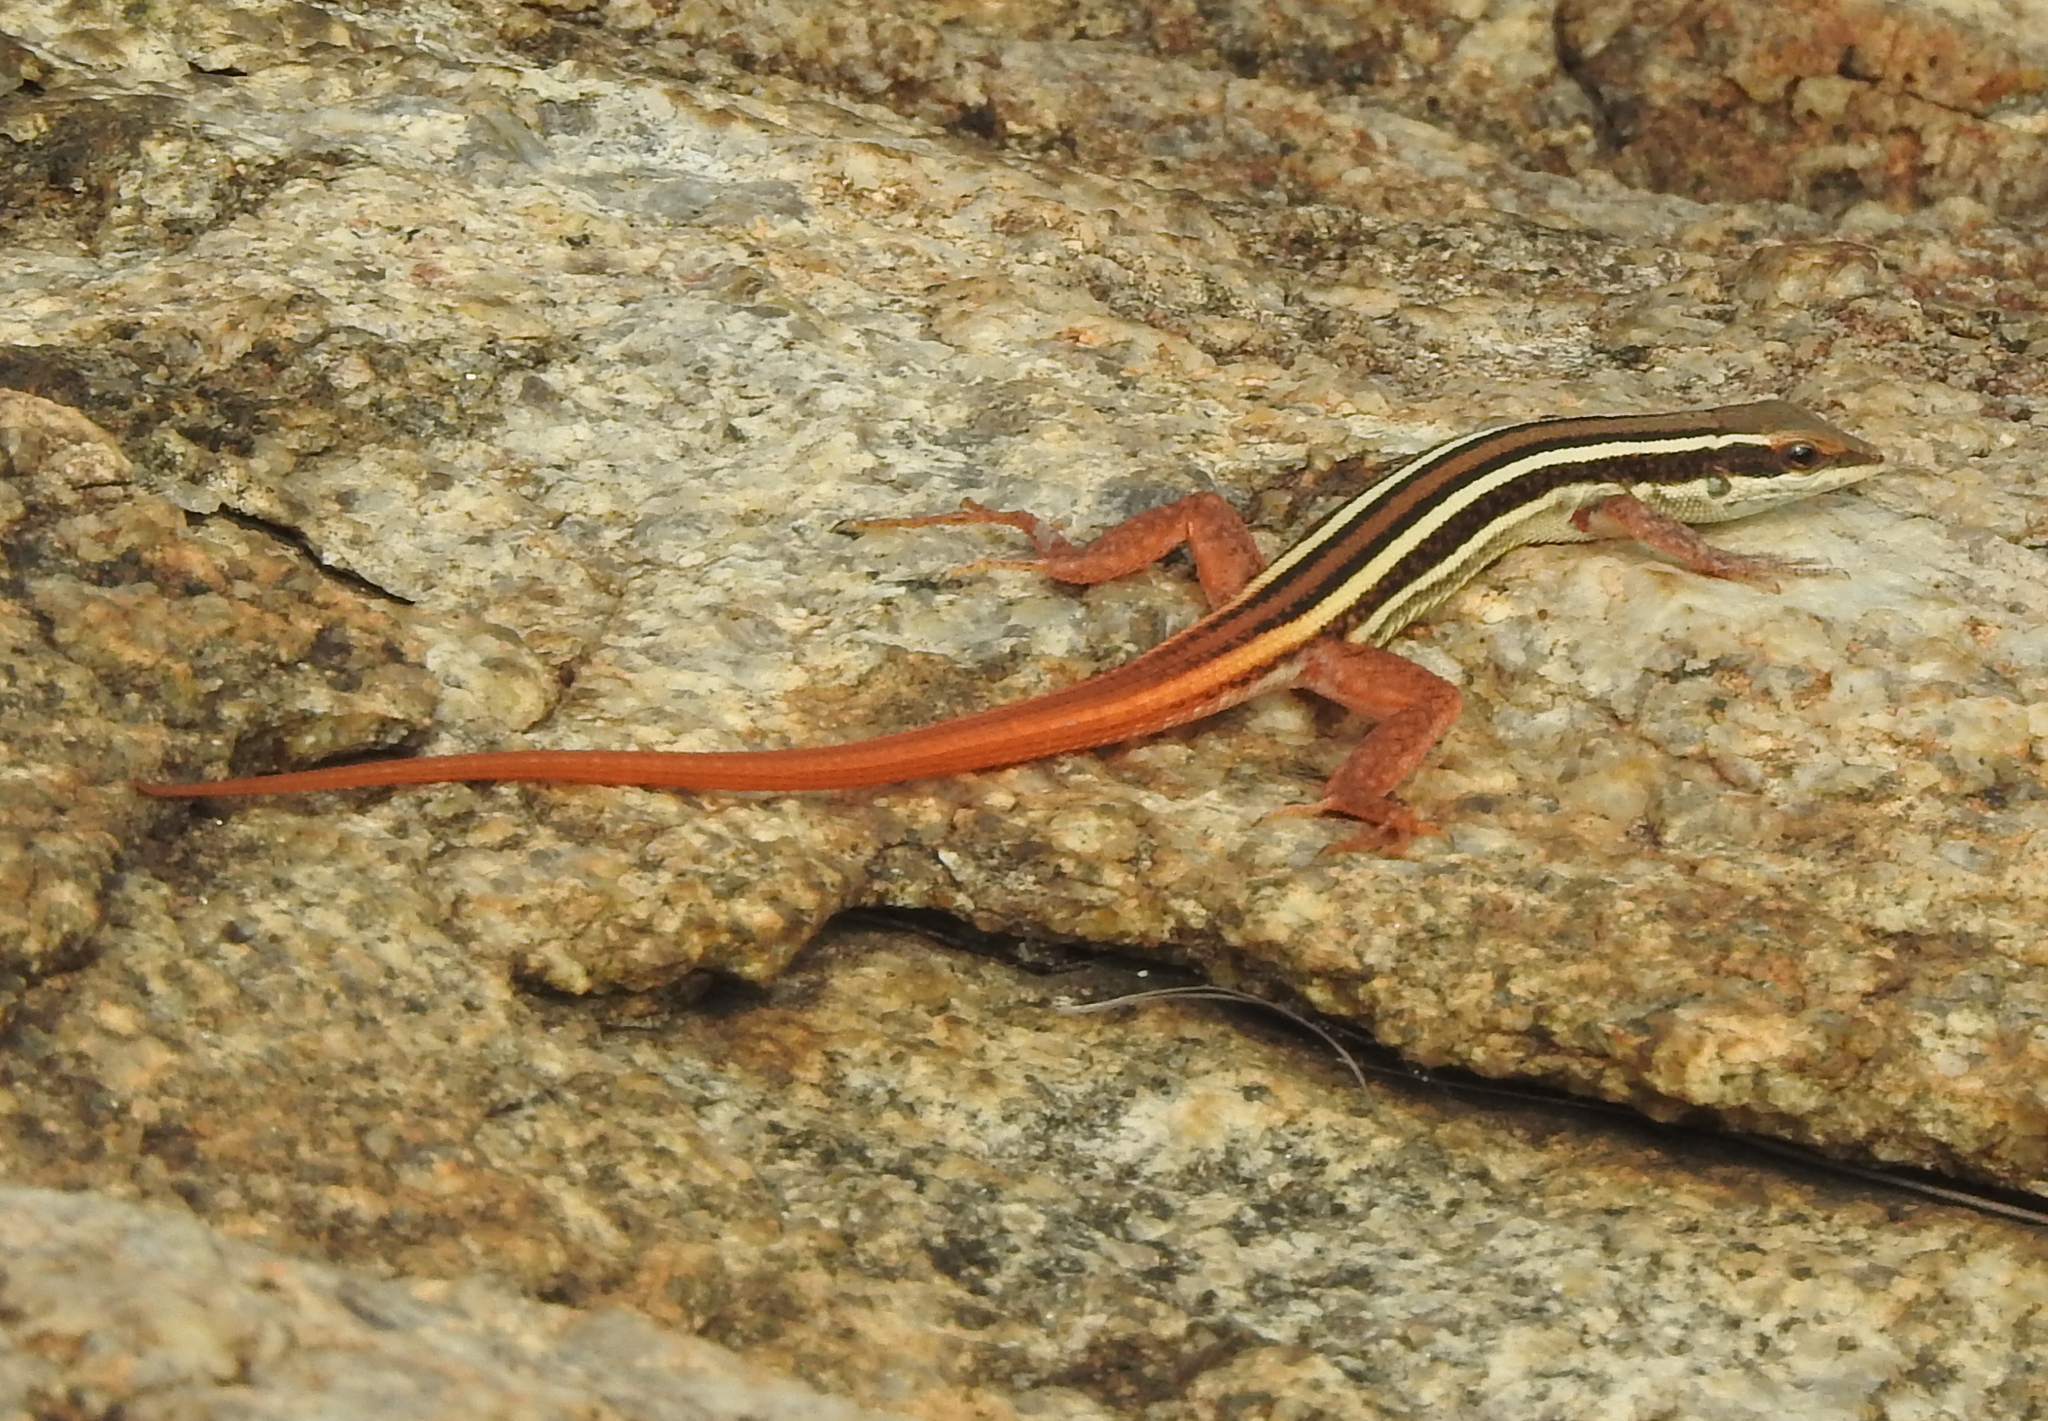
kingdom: Animalia
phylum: Chordata
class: Squamata
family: Lacertidae
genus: Ophisops
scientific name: Ophisops leschenaultii
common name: Leschenault's cabrita
